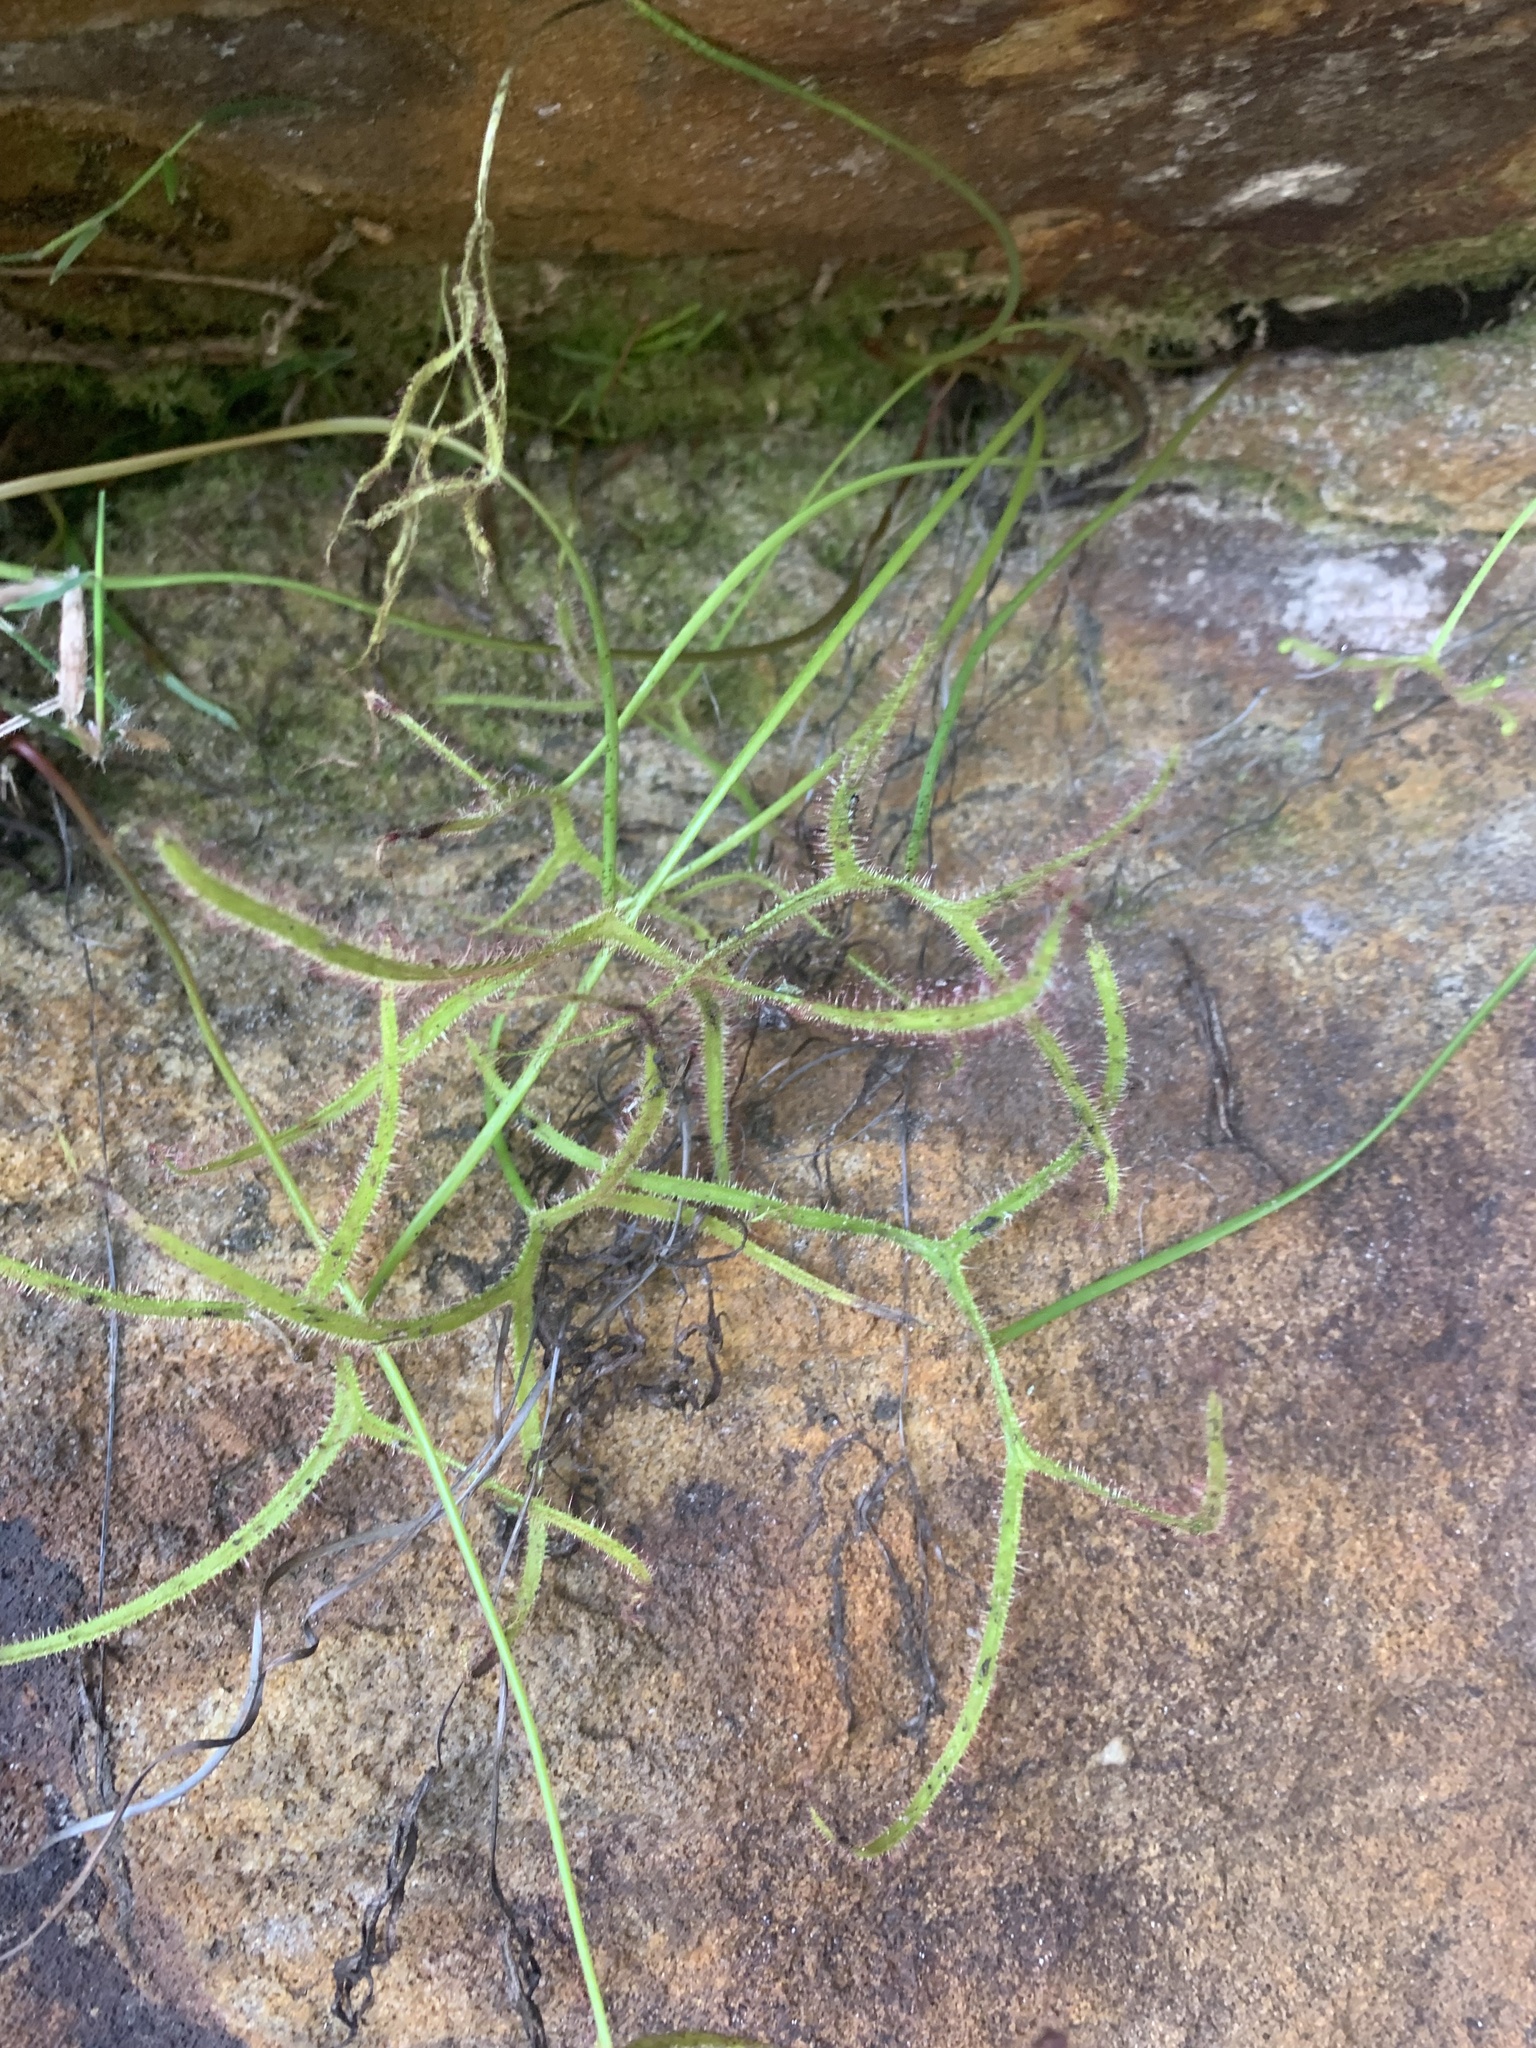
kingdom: Plantae
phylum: Tracheophyta
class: Magnoliopsida
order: Caryophyllales
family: Droseraceae
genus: Drosera
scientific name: Drosera binata
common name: Forked sundew
